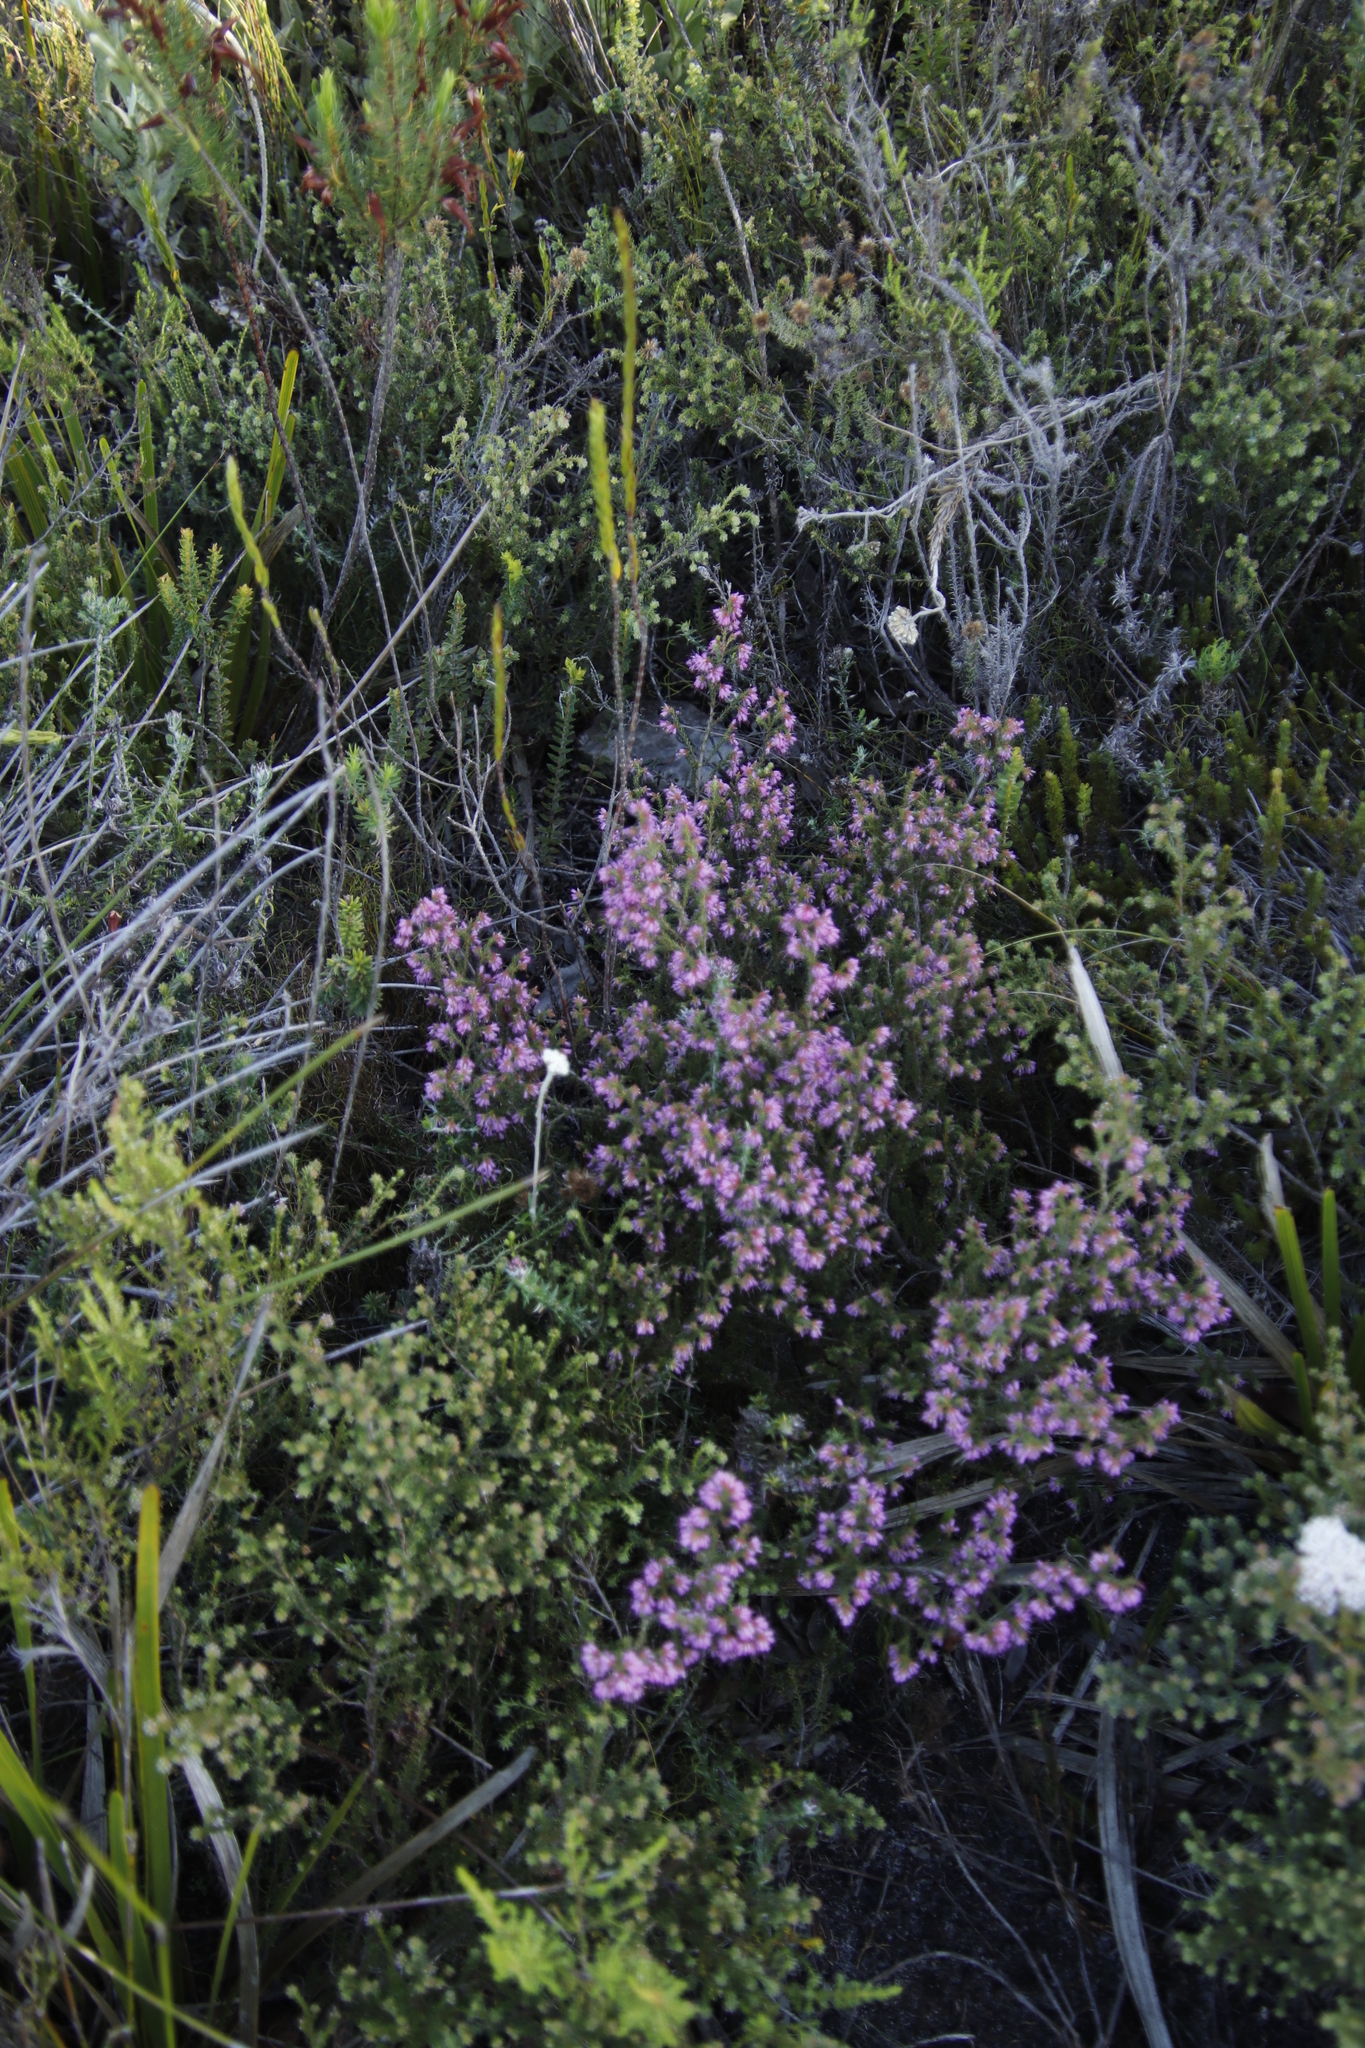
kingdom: Plantae
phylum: Tracheophyta
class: Magnoliopsida
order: Ericales
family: Ericaceae
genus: Erica
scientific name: Erica glabella
